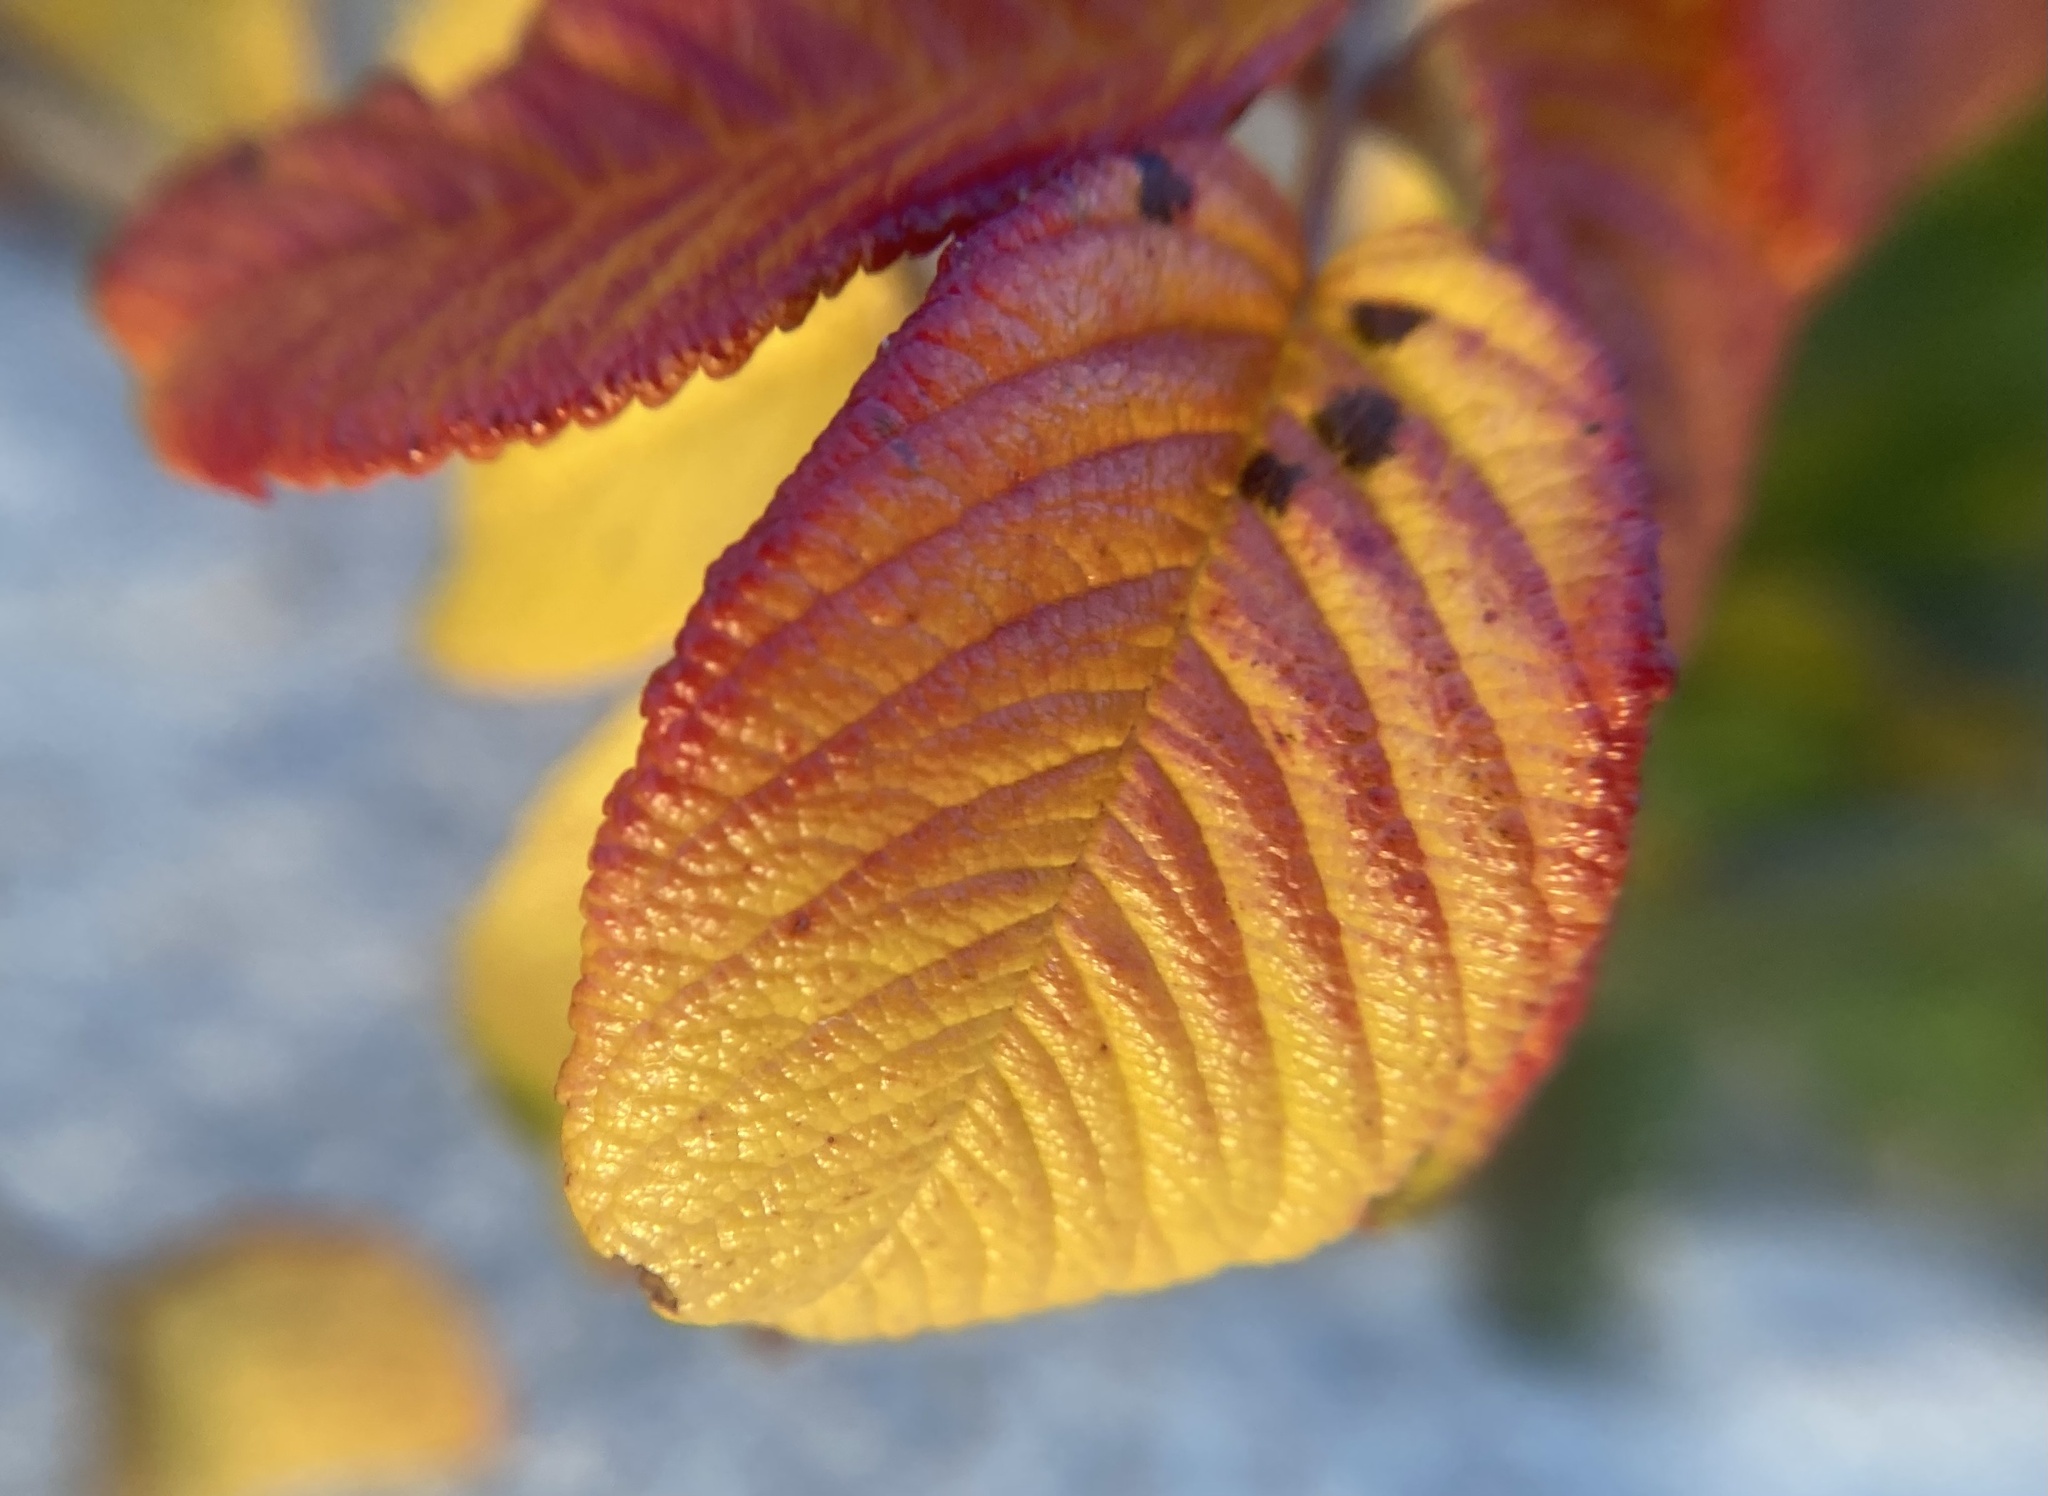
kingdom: Plantae
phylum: Tracheophyta
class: Magnoliopsida
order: Rosales
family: Rosaceae
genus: Rosa
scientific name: Rosa rugosa
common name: Japanese rose
